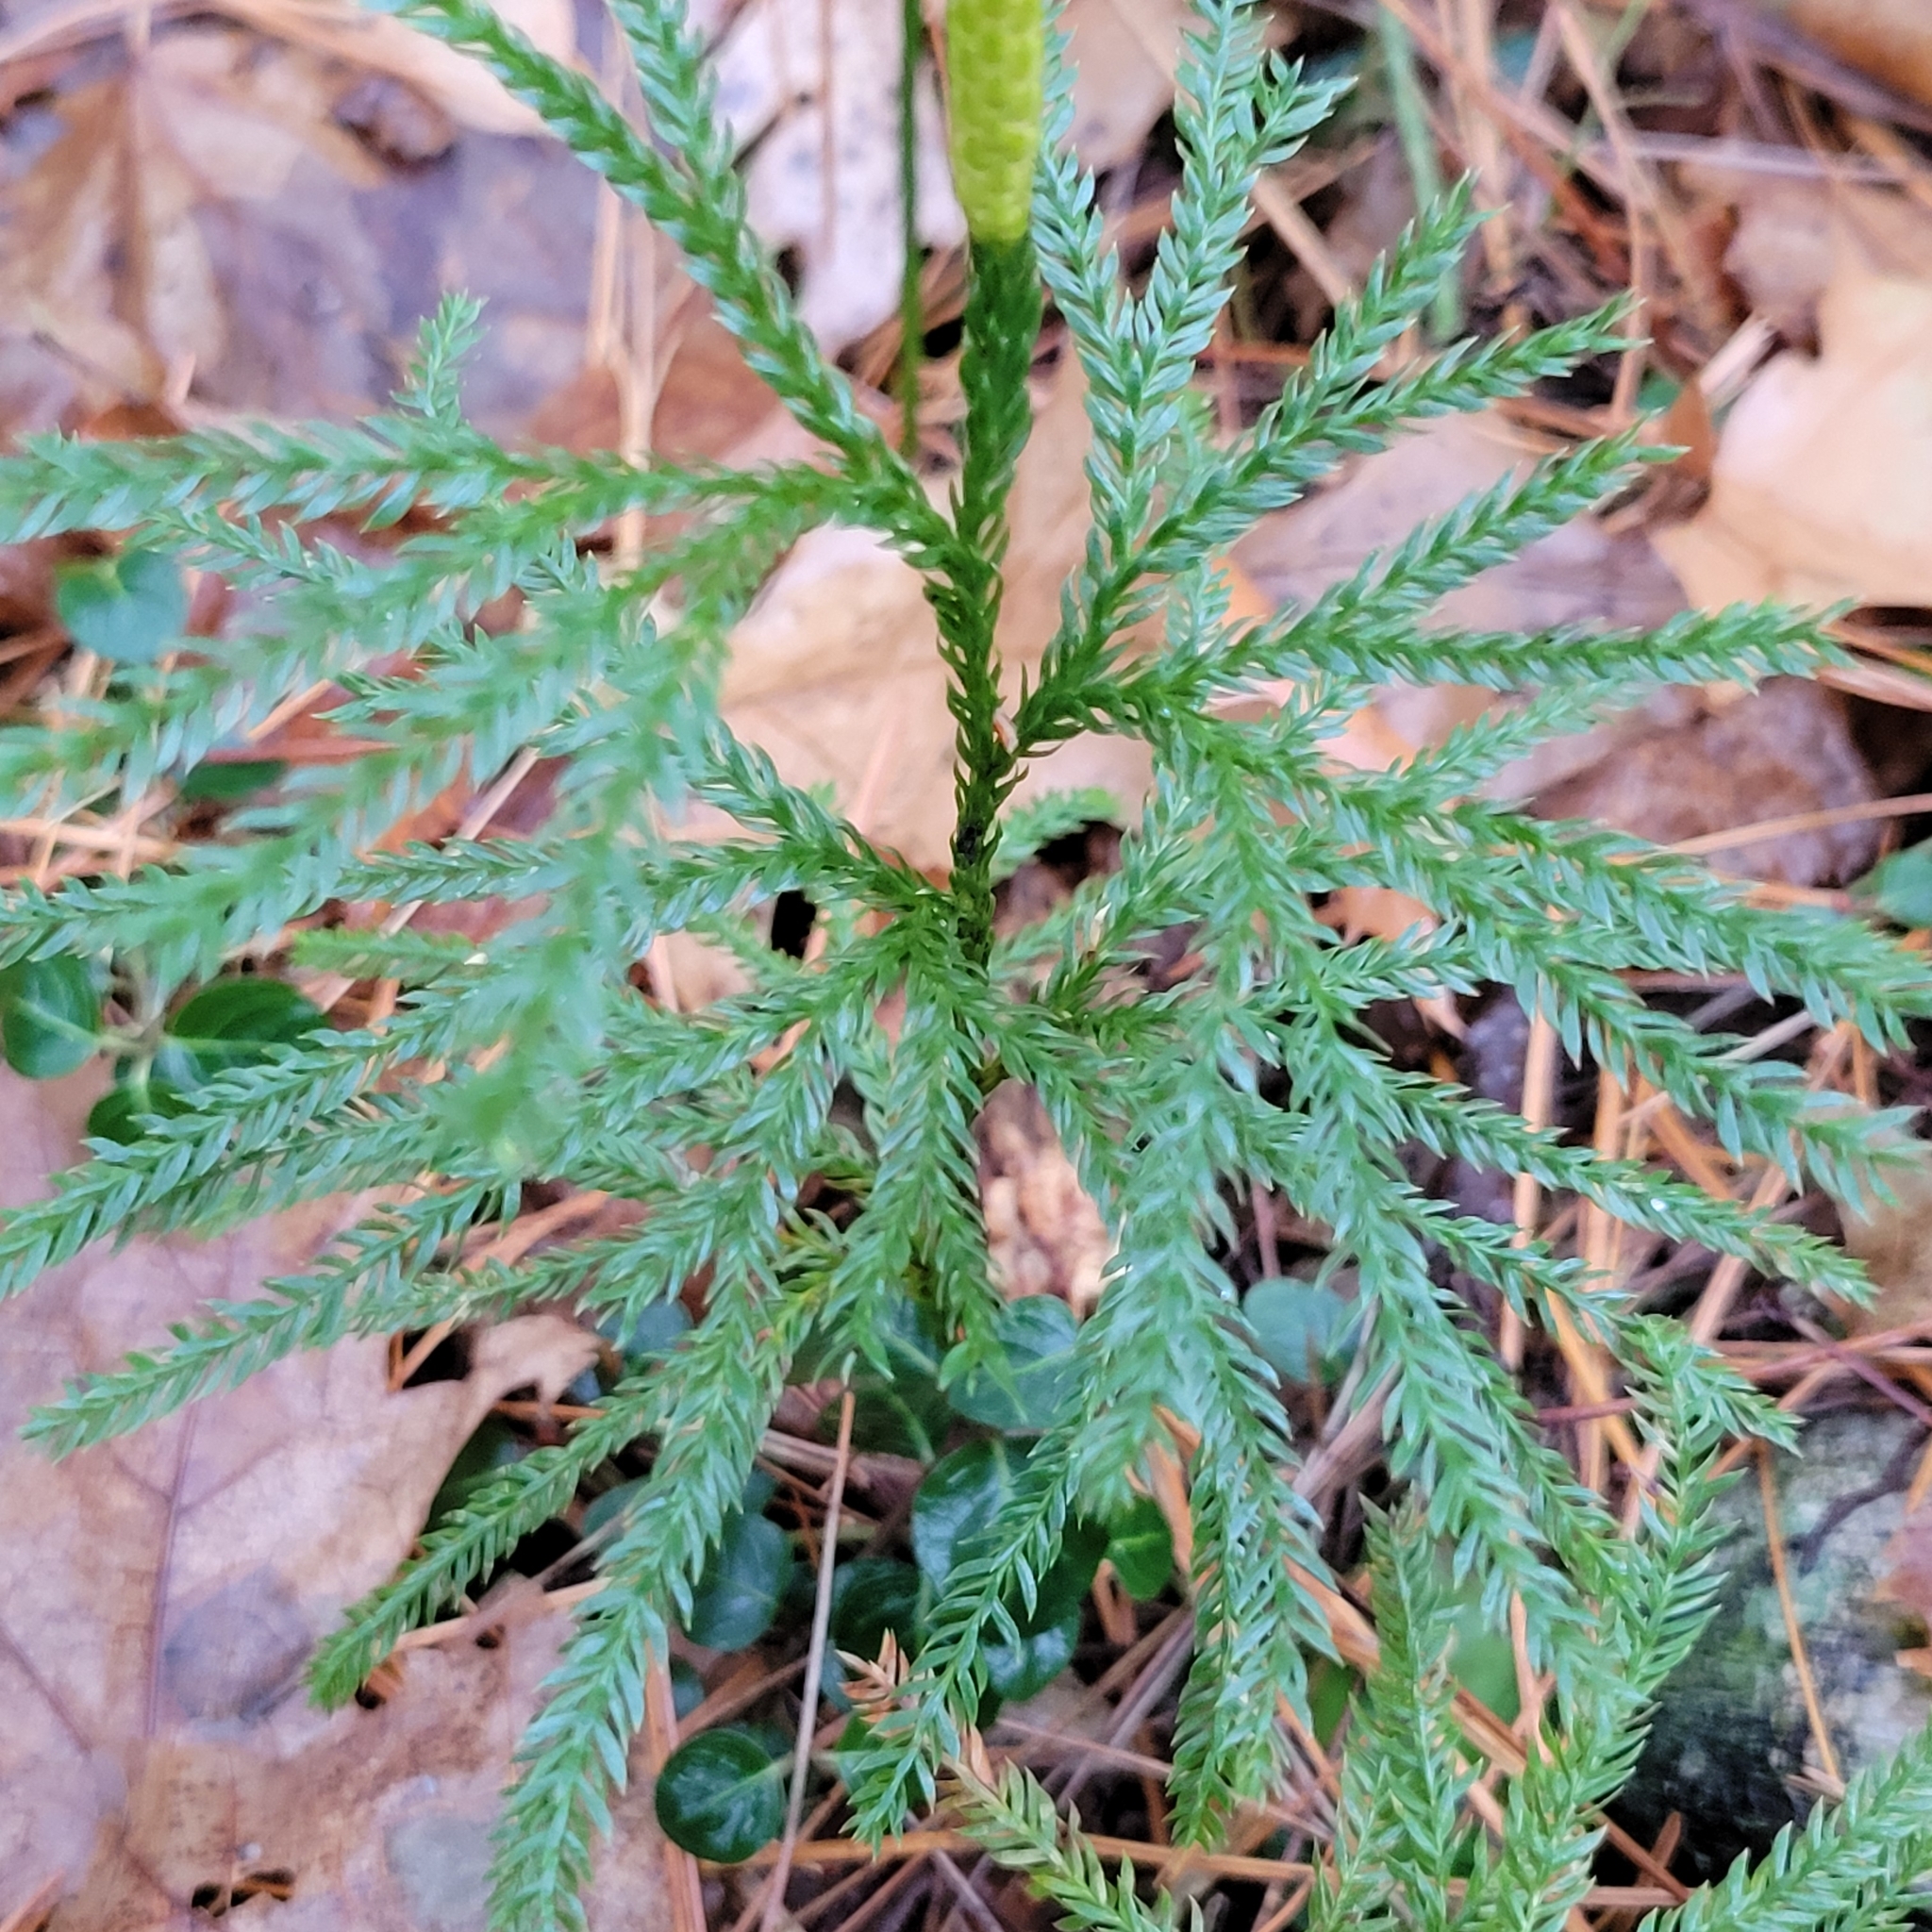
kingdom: Plantae
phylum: Tracheophyta
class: Lycopodiopsida
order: Lycopodiales
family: Lycopodiaceae
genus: Dendrolycopodium
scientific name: Dendrolycopodium obscurum
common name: Common ground-pine
